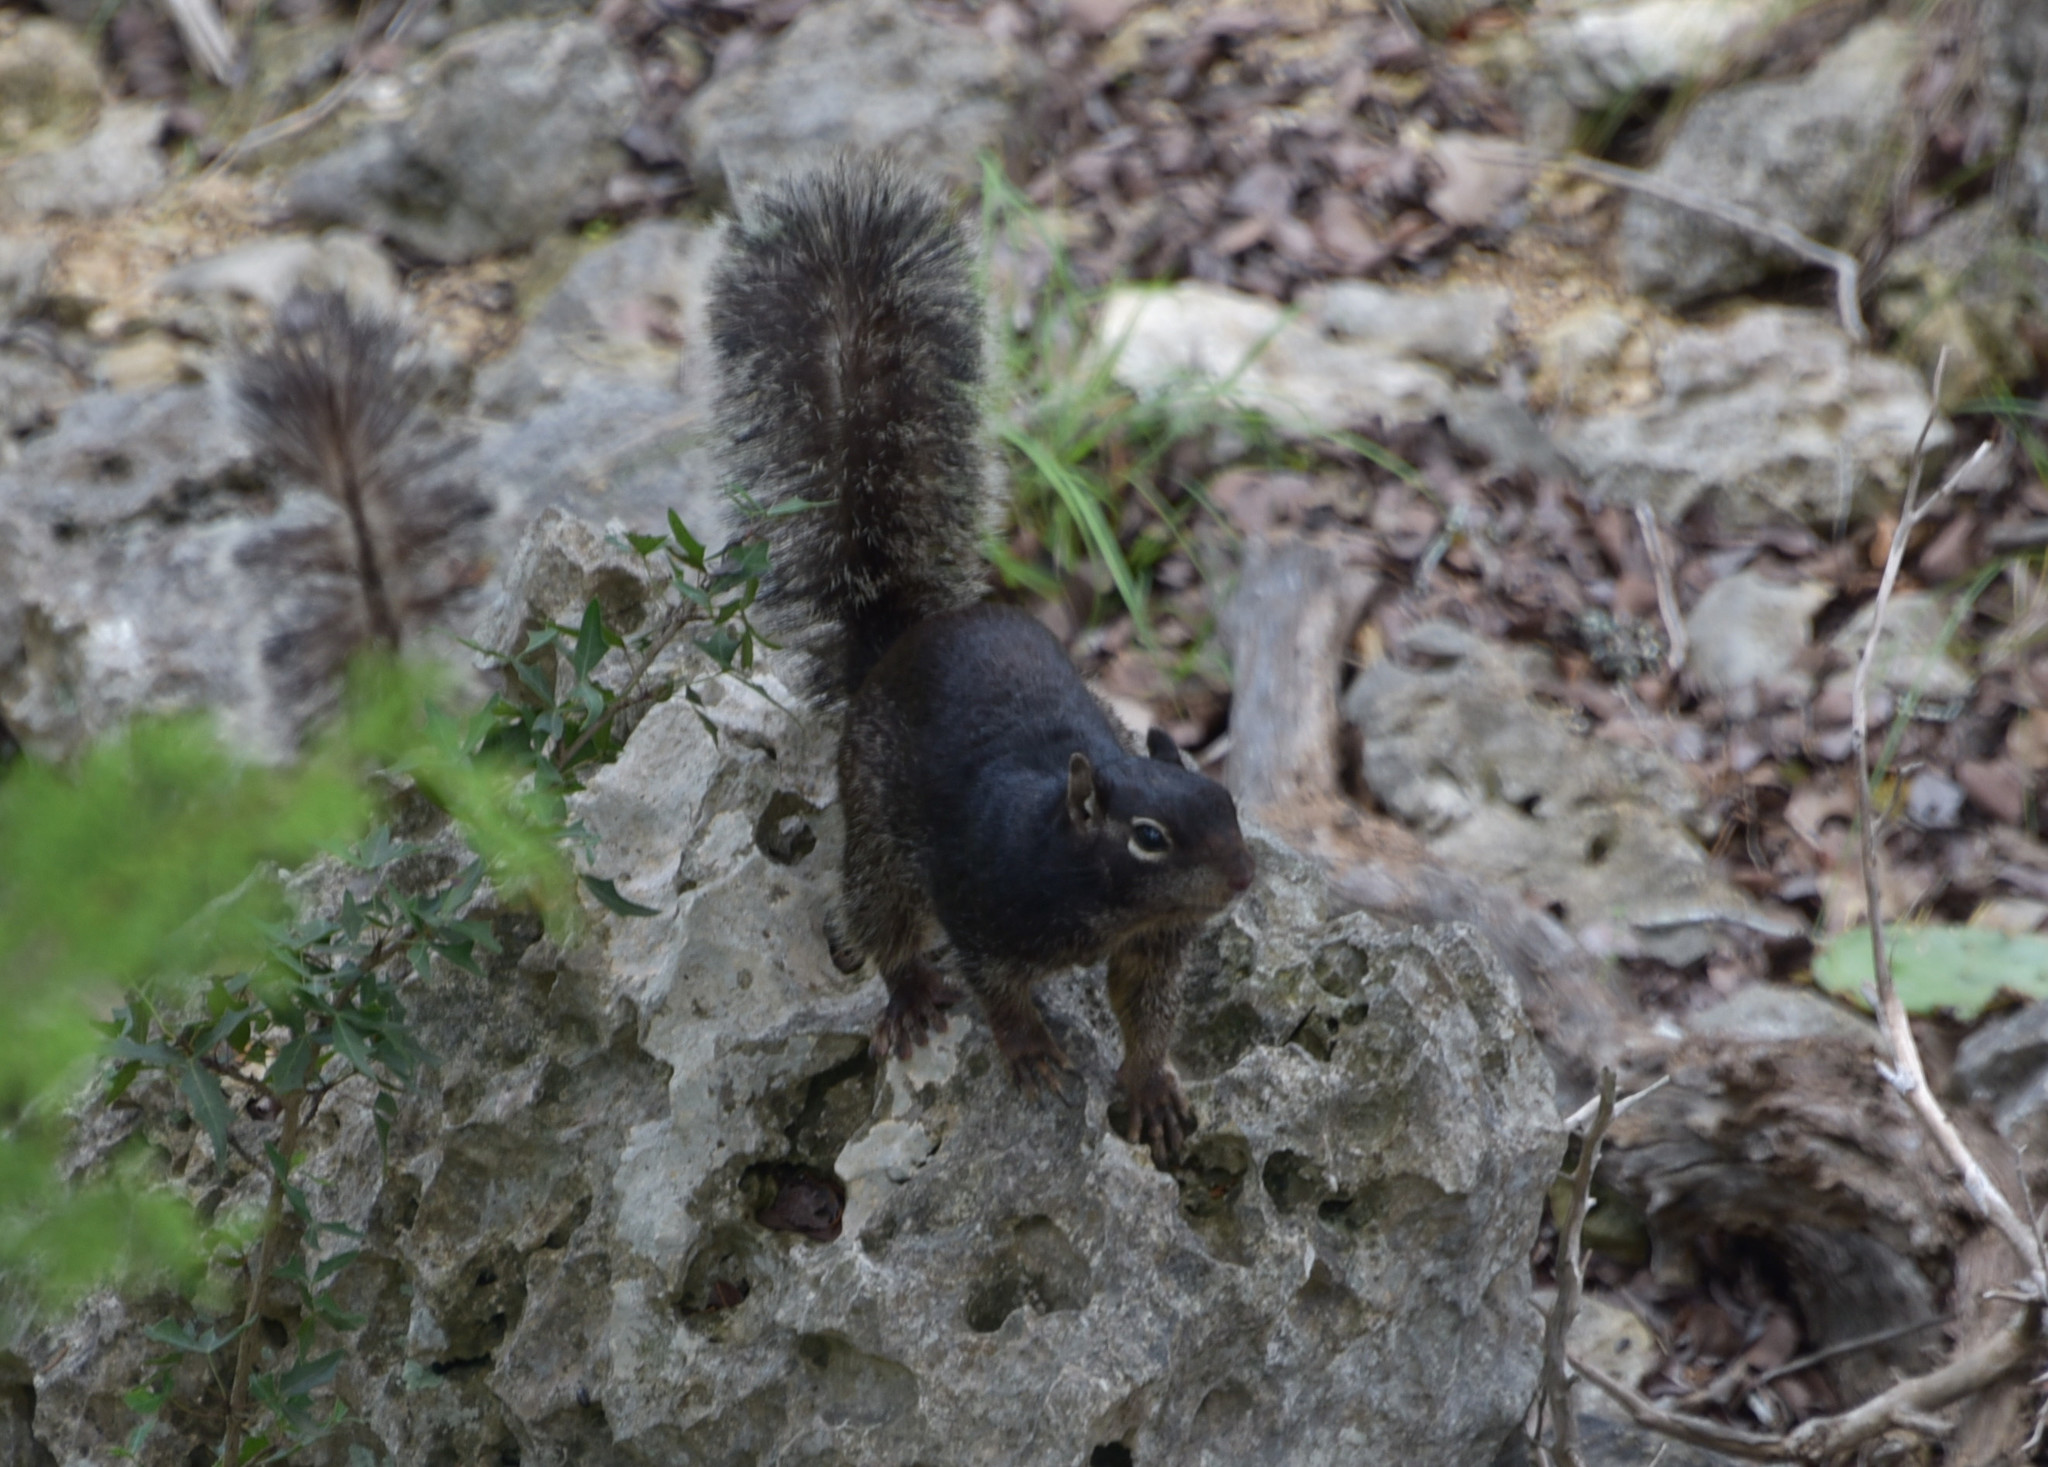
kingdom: Animalia
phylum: Chordata
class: Mammalia
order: Rodentia
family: Sciuridae
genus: Otospermophilus
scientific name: Otospermophilus variegatus
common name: Rock squirrel
